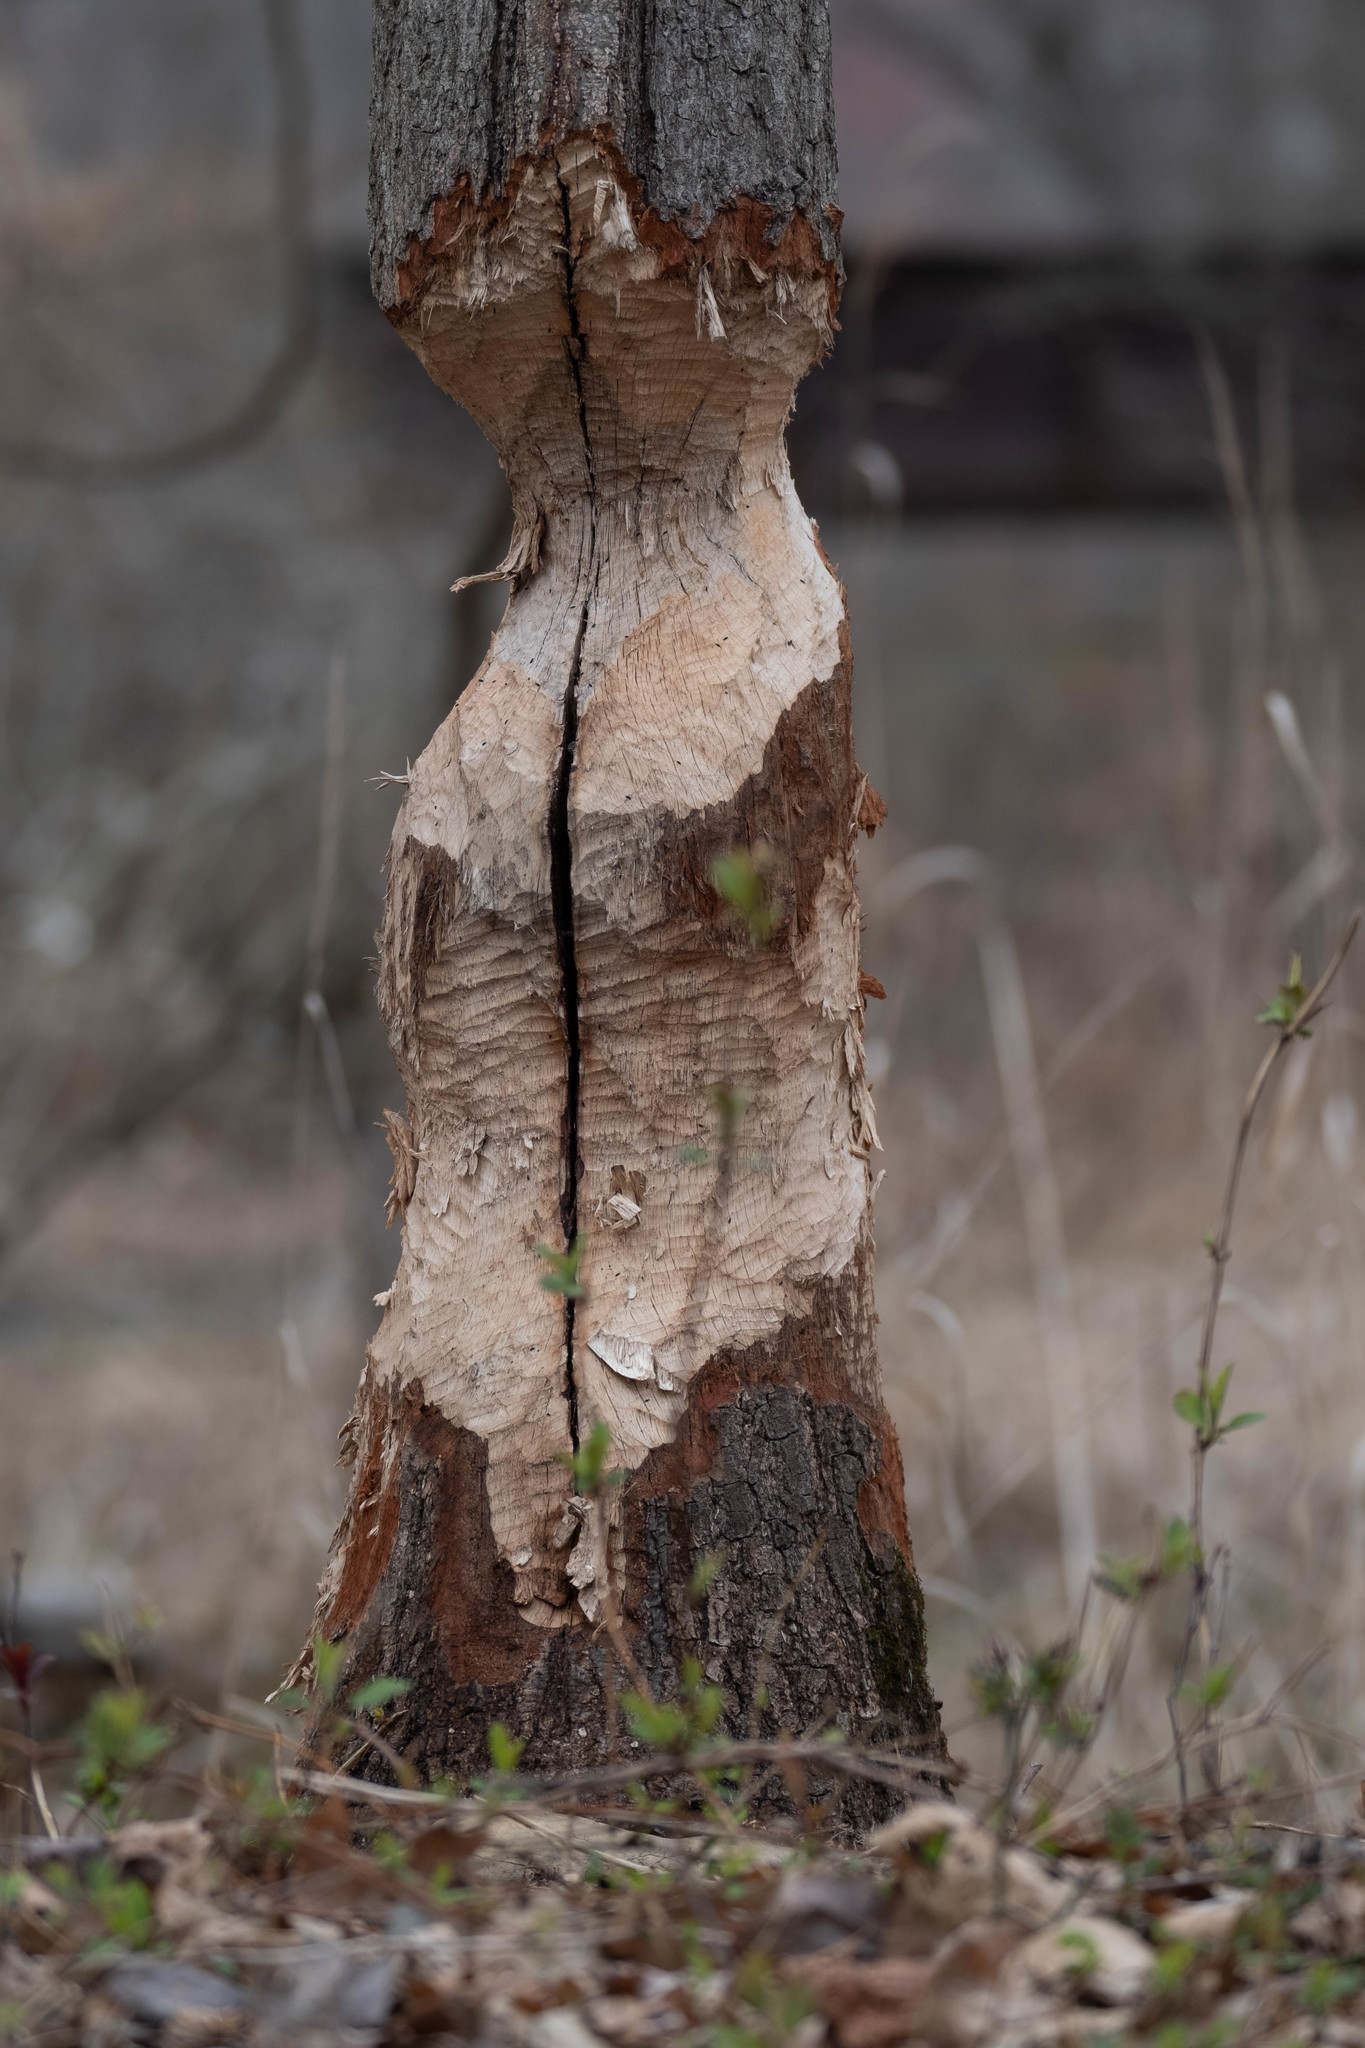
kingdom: Animalia
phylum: Chordata
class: Mammalia
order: Rodentia
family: Castoridae
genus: Castor
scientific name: Castor canadensis
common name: American beaver
